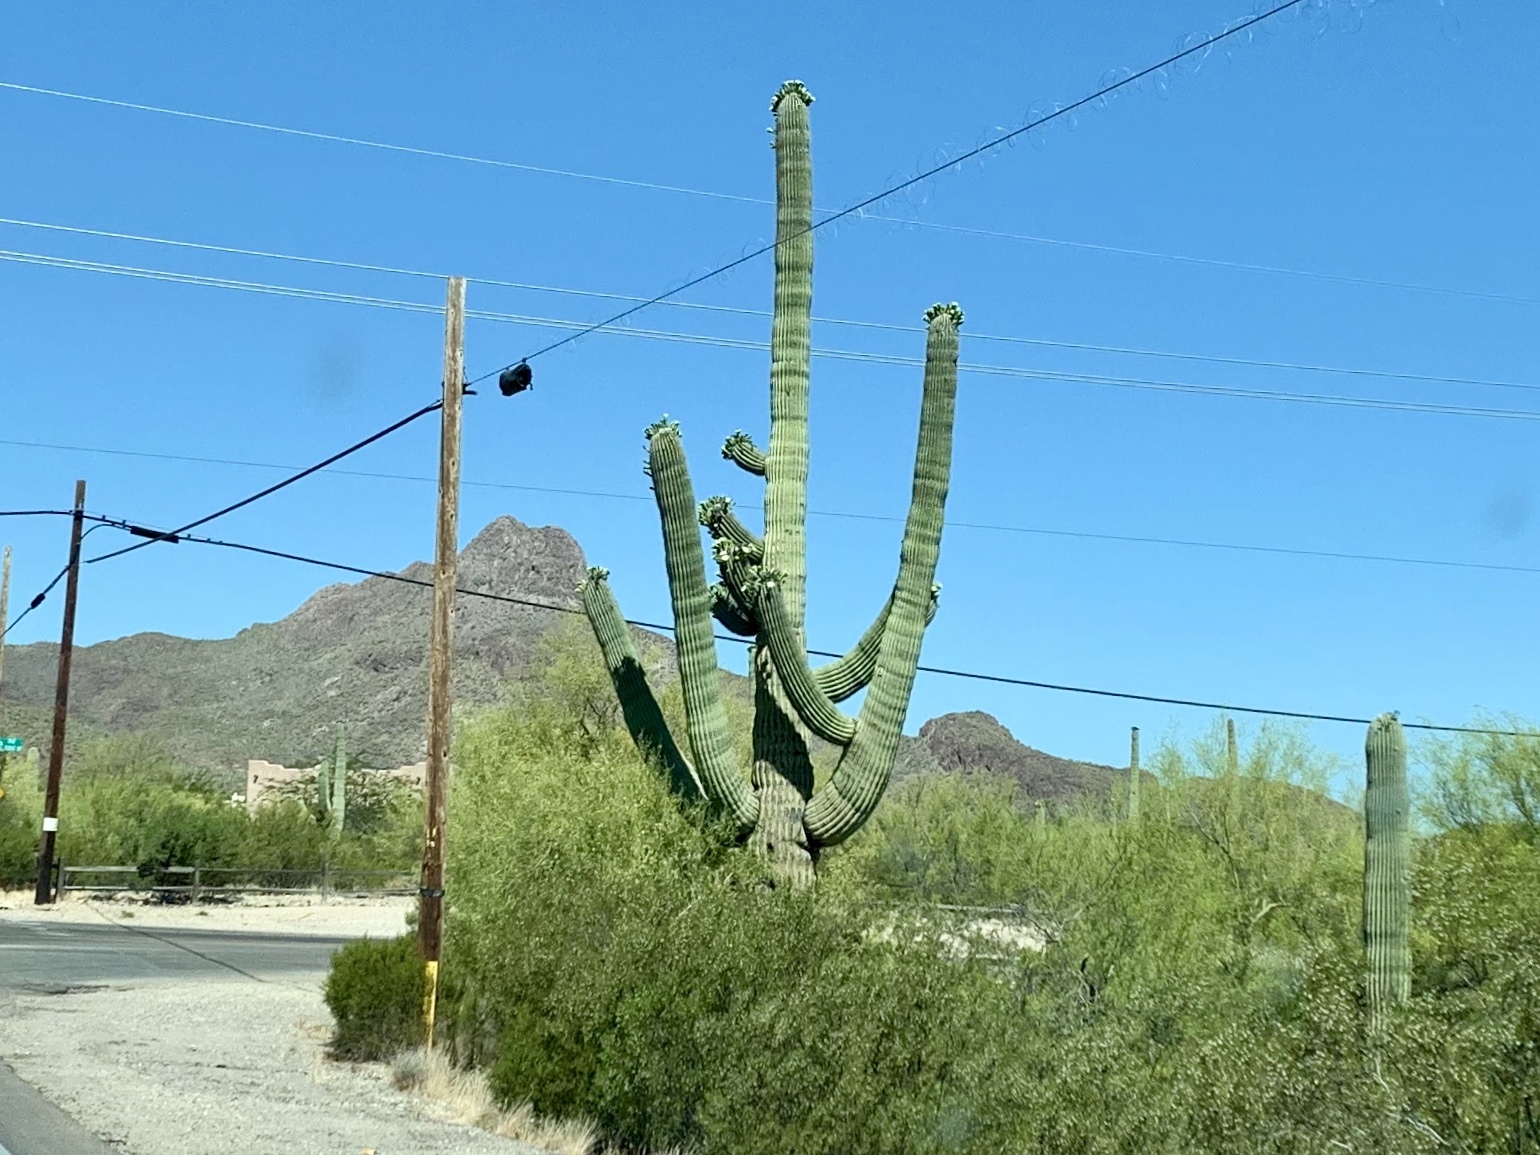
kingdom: Plantae
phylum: Tracheophyta
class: Magnoliopsida
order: Caryophyllales
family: Cactaceae
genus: Carnegiea
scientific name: Carnegiea gigantea
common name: Saguaro
